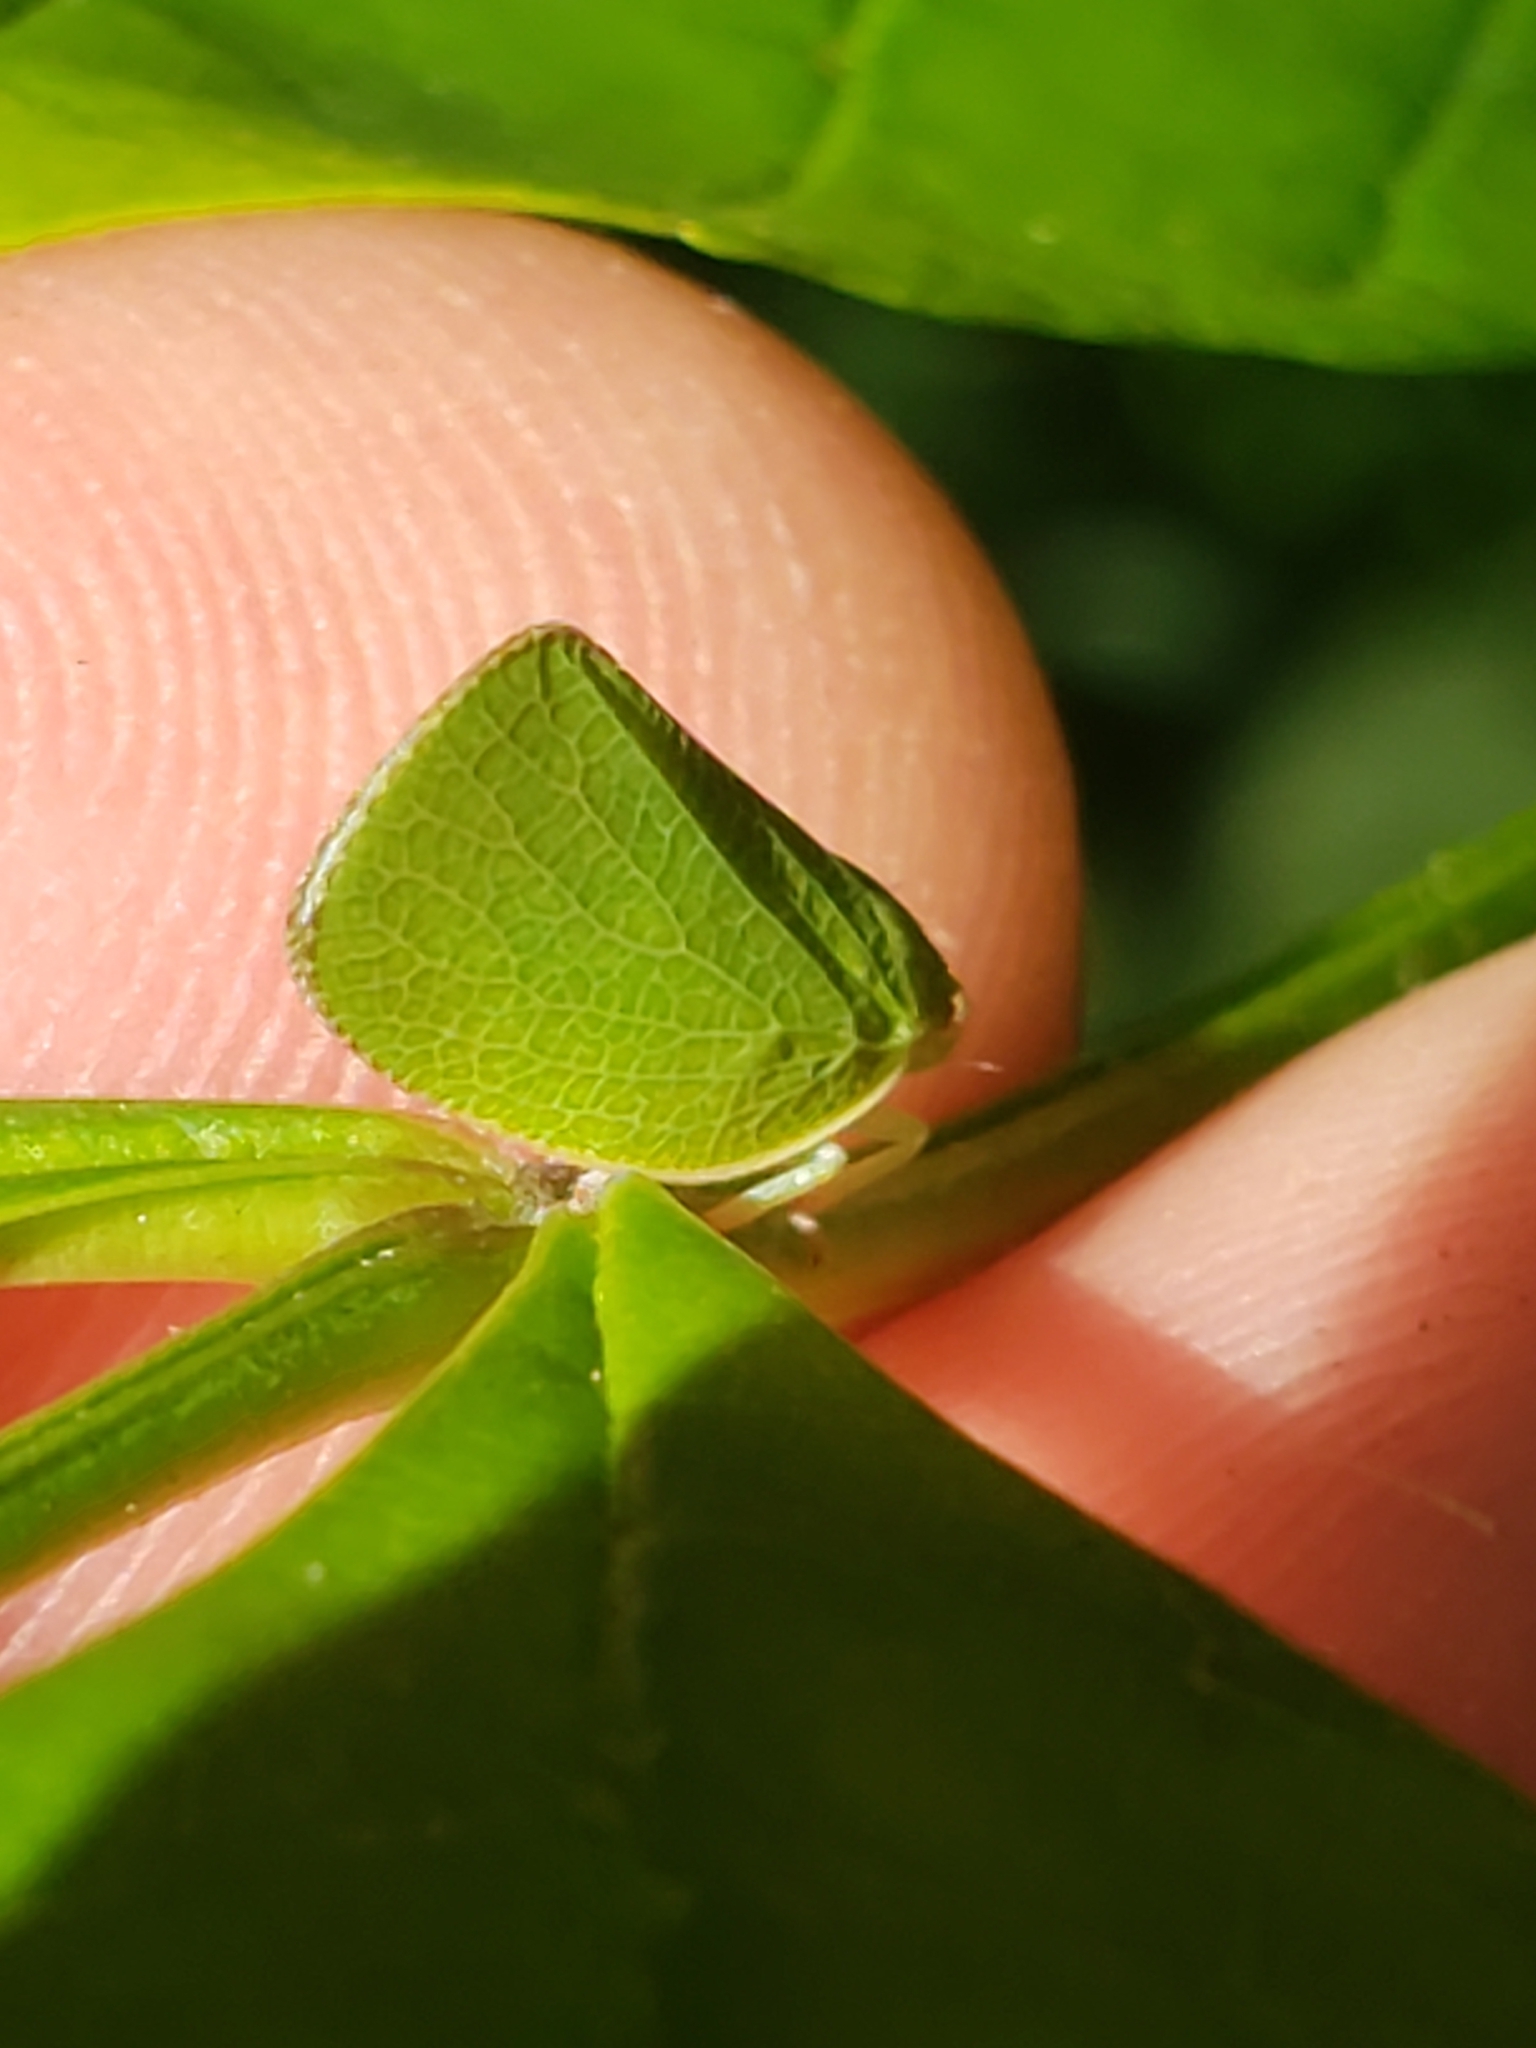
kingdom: Animalia
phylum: Arthropoda
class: Insecta
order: Hemiptera
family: Acanaloniidae
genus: Acanalonia
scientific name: Acanalonia conica
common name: Green cone-headed planthopper
